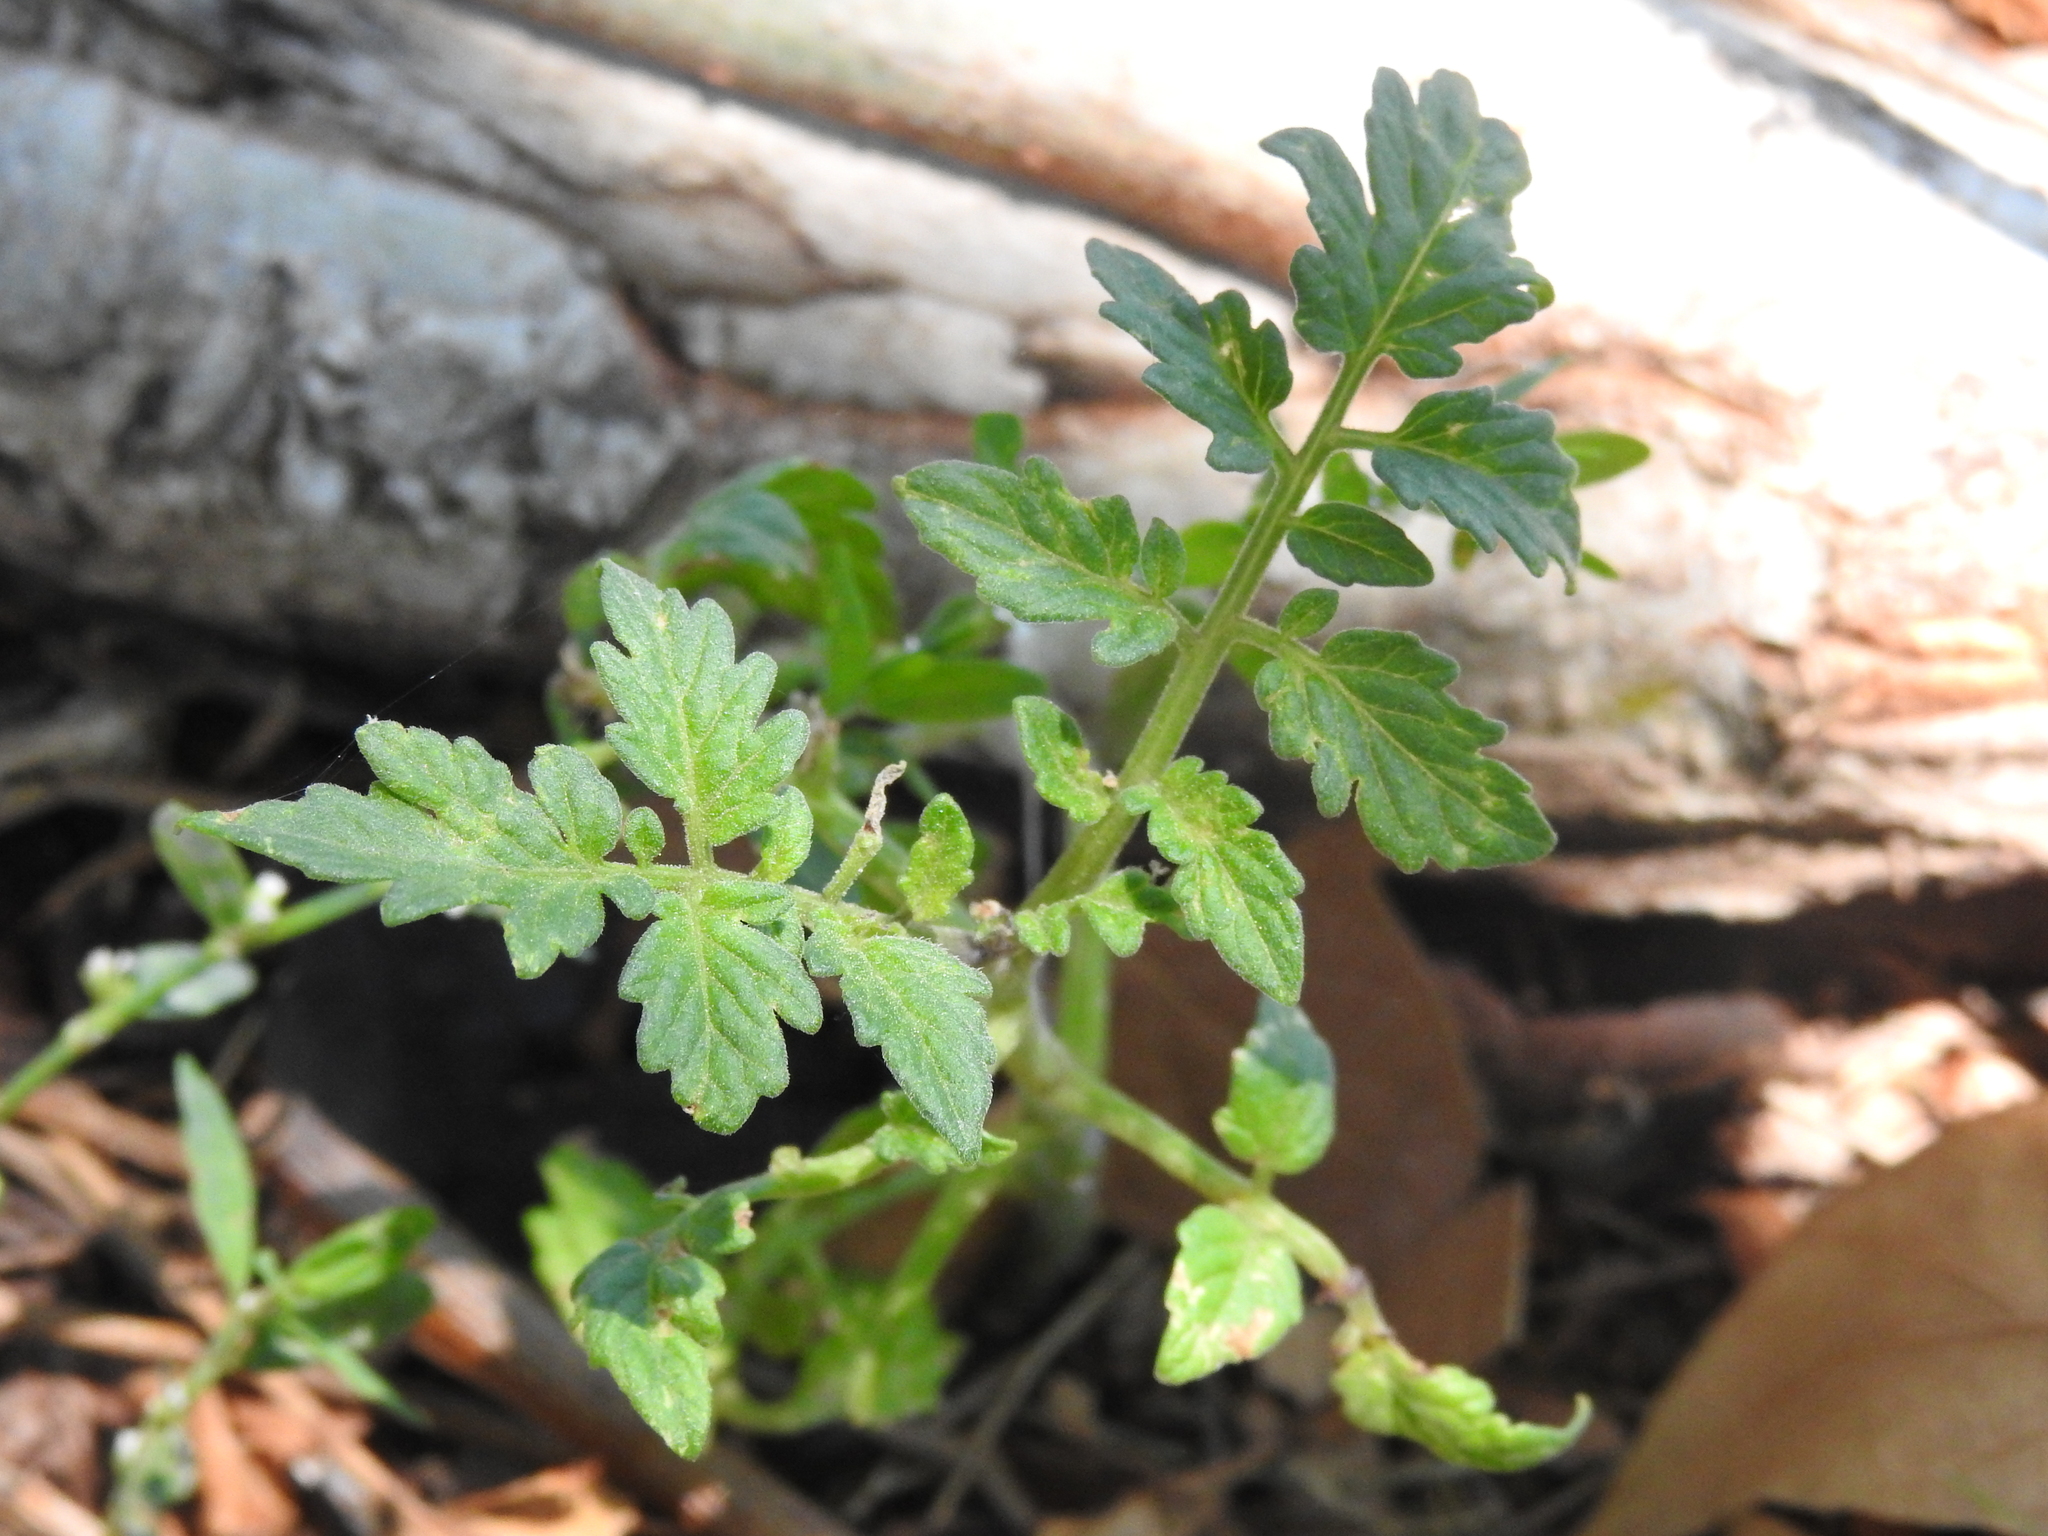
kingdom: Plantae
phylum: Tracheophyta
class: Magnoliopsida
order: Solanales
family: Solanaceae
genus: Solanum
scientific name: Solanum lycopersicum
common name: Garden tomato
